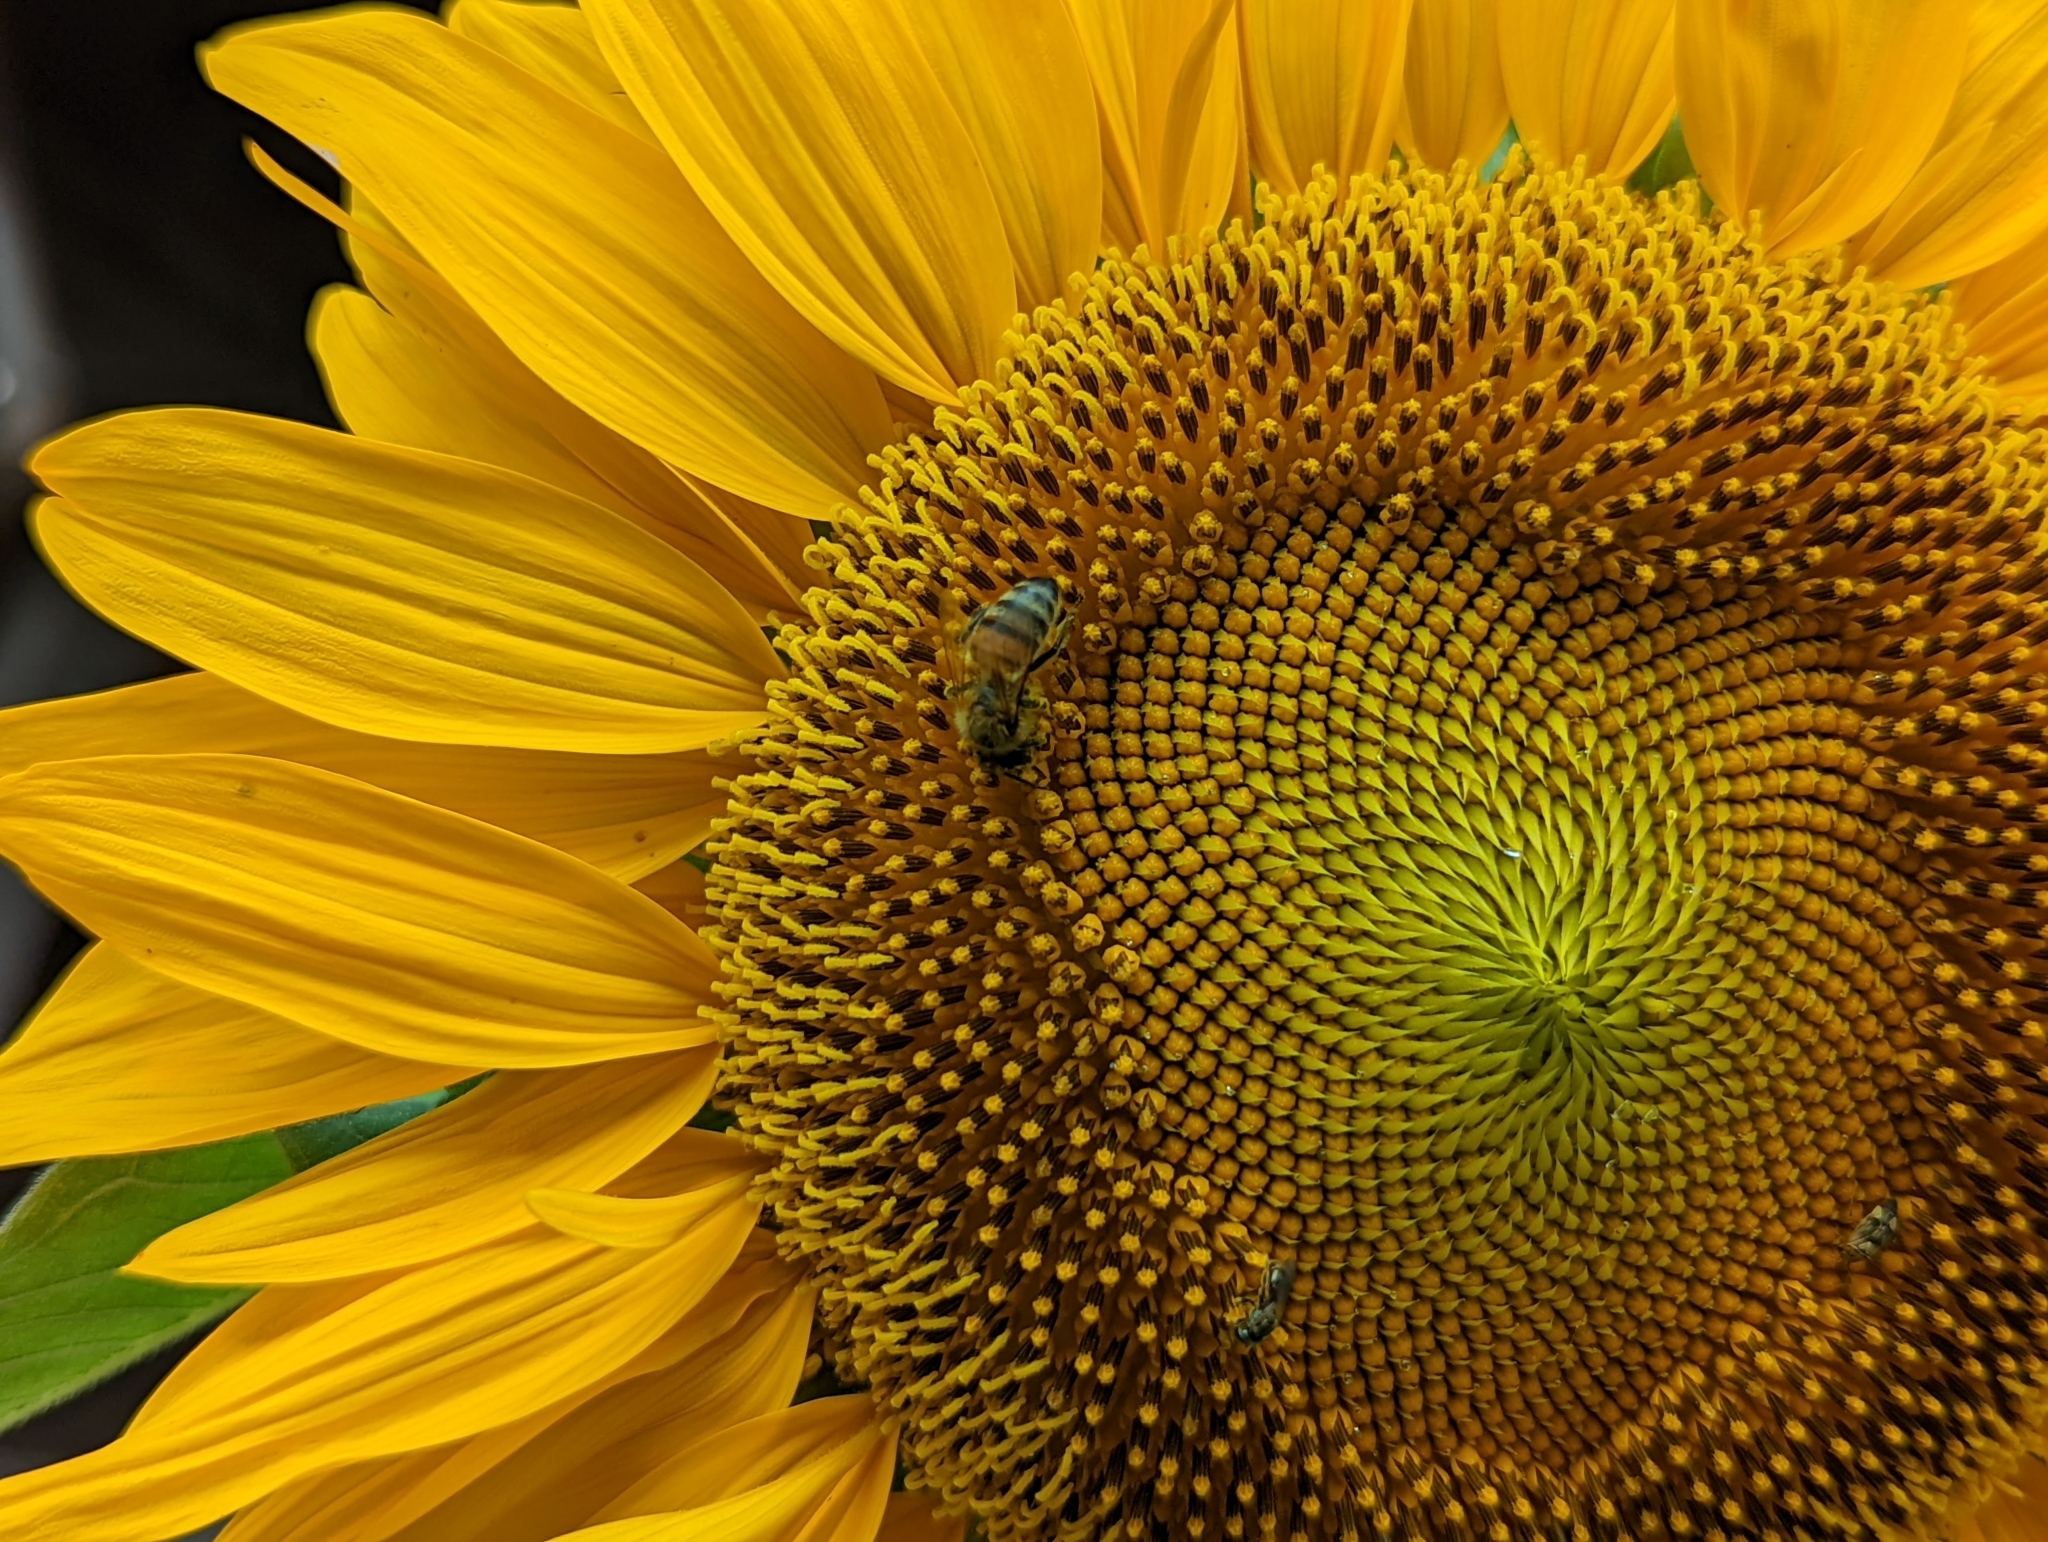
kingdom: Animalia
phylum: Arthropoda
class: Insecta
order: Hymenoptera
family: Apidae
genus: Apis
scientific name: Apis mellifera
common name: Honey bee
